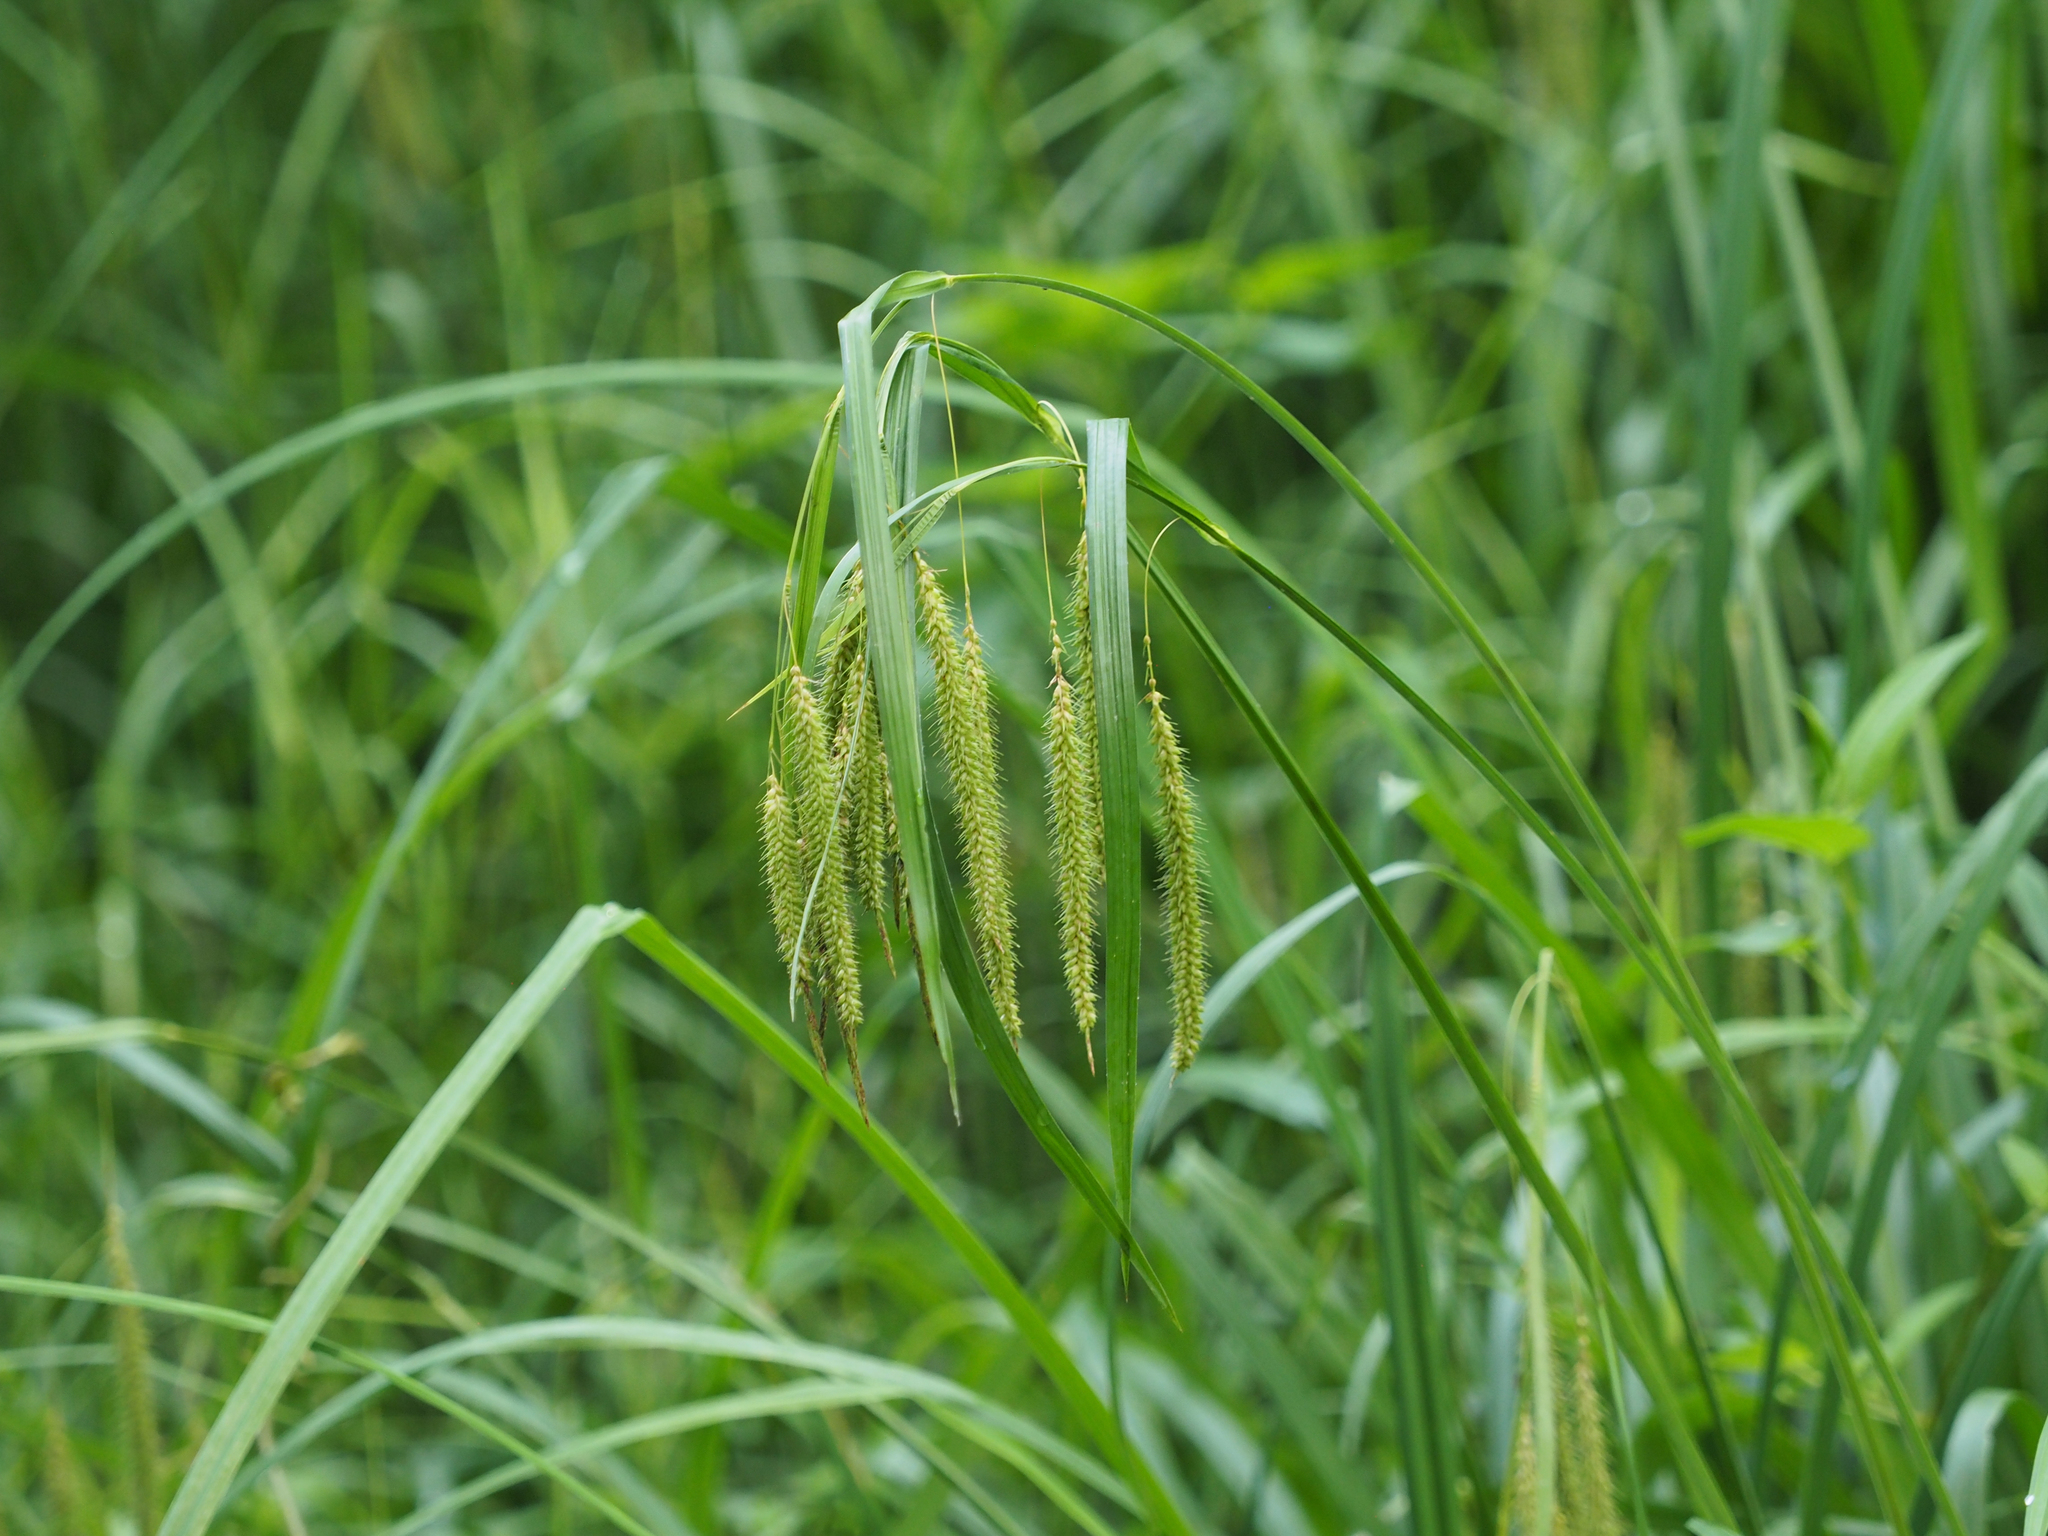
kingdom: Plantae
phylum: Tracheophyta
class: Liliopsida
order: Poales
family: Cyperaceae
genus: Carex
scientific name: Carex crinita
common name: Fringed sedge
